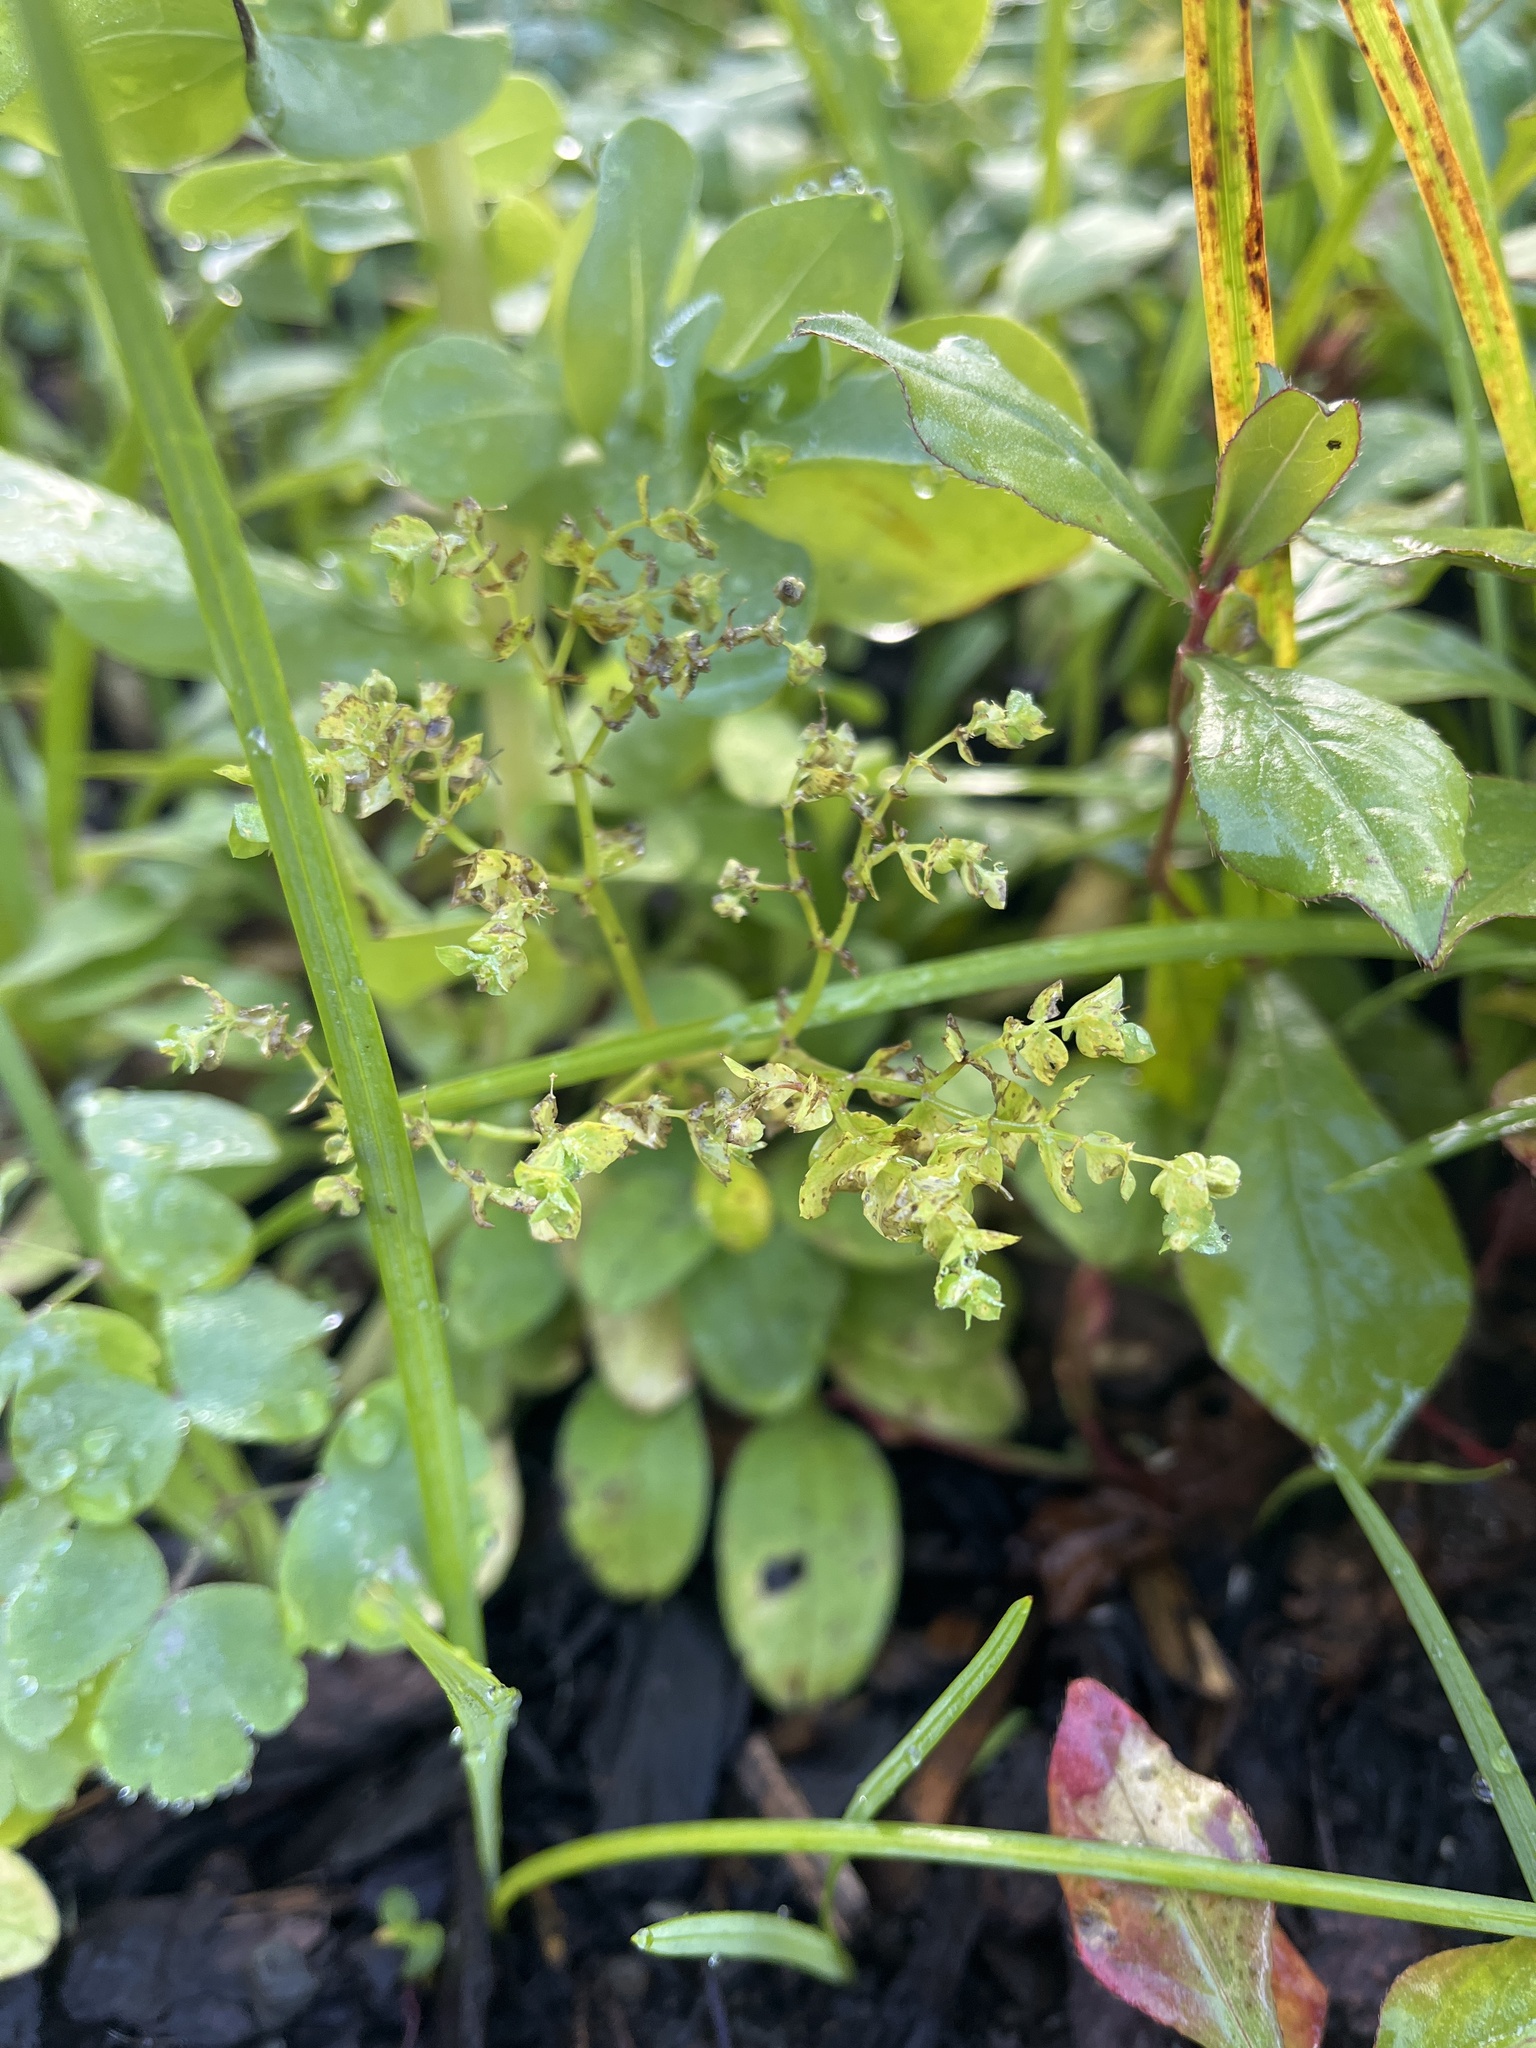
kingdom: Plantae
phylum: Tracheophyta
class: Magnoliopsida
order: Malpighiales
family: Euphorbiaceae
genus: Euphorbia
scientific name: Euphorbia peplus
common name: Petty spurge
